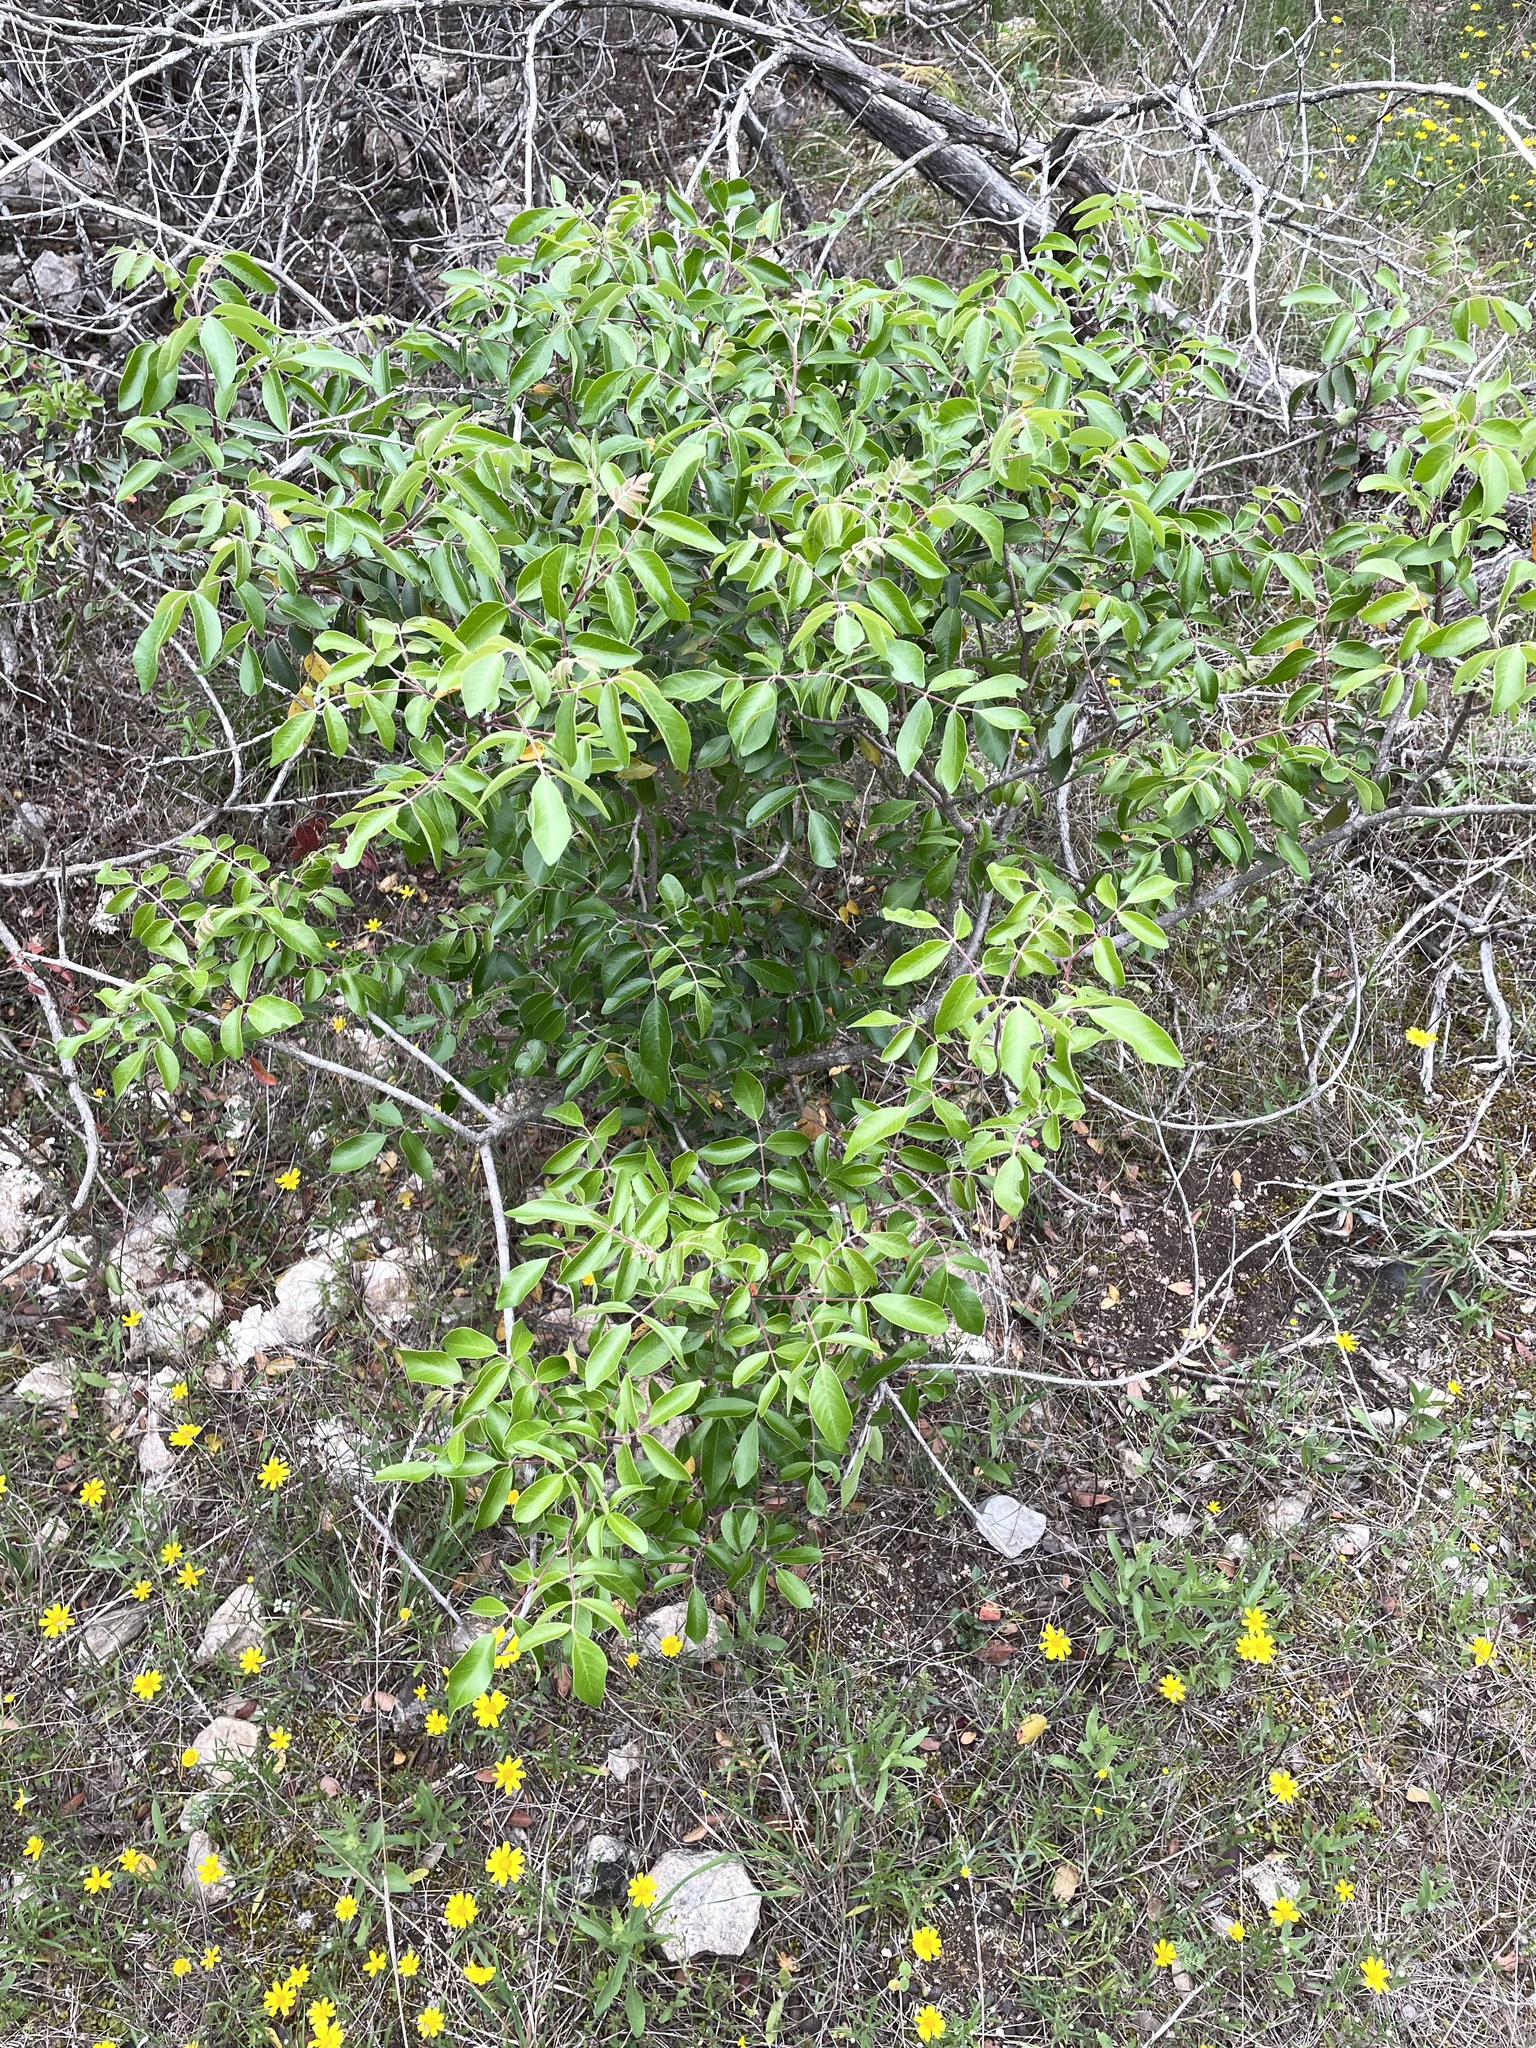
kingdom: Plantae
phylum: Tracheophyta
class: Magnoliopsida
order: Sapindales
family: Anacardiaceae
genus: Rhus
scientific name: Rhus virens
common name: Evergreen sumac
